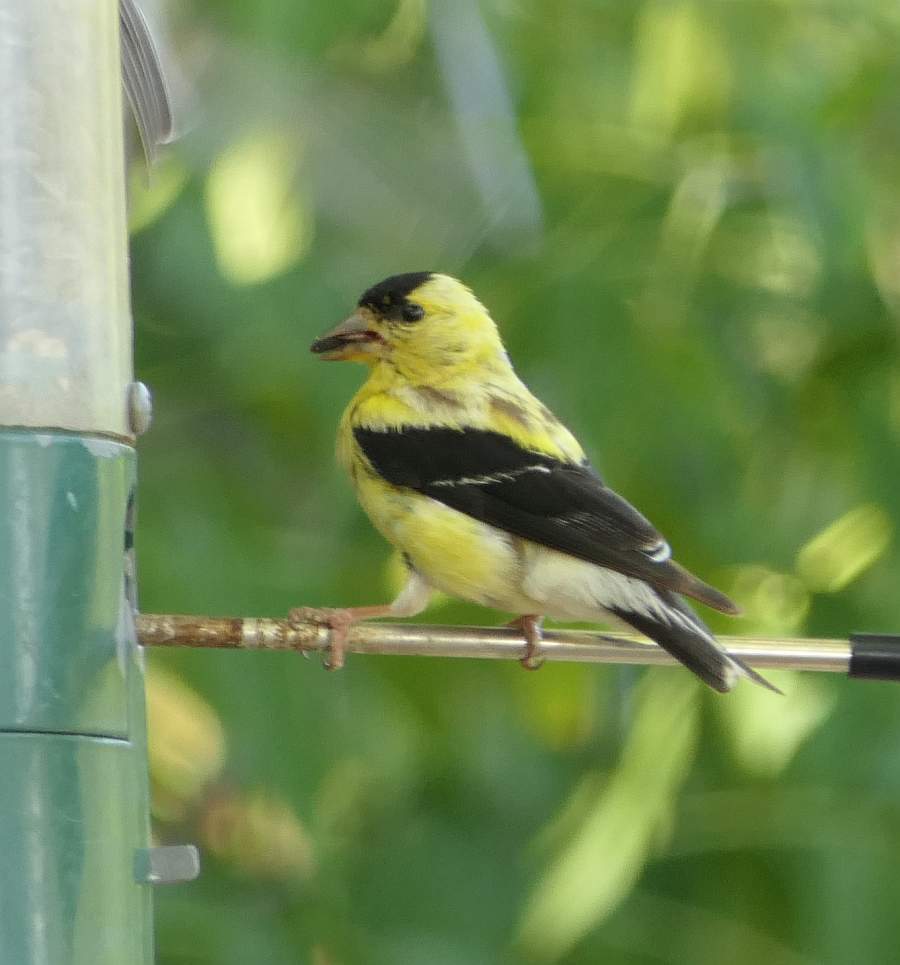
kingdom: Animalia
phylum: Chordata
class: Aves
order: Passeriformes
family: Fringillidae
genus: Spinus
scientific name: Spinus tristis
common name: American goldfinch
